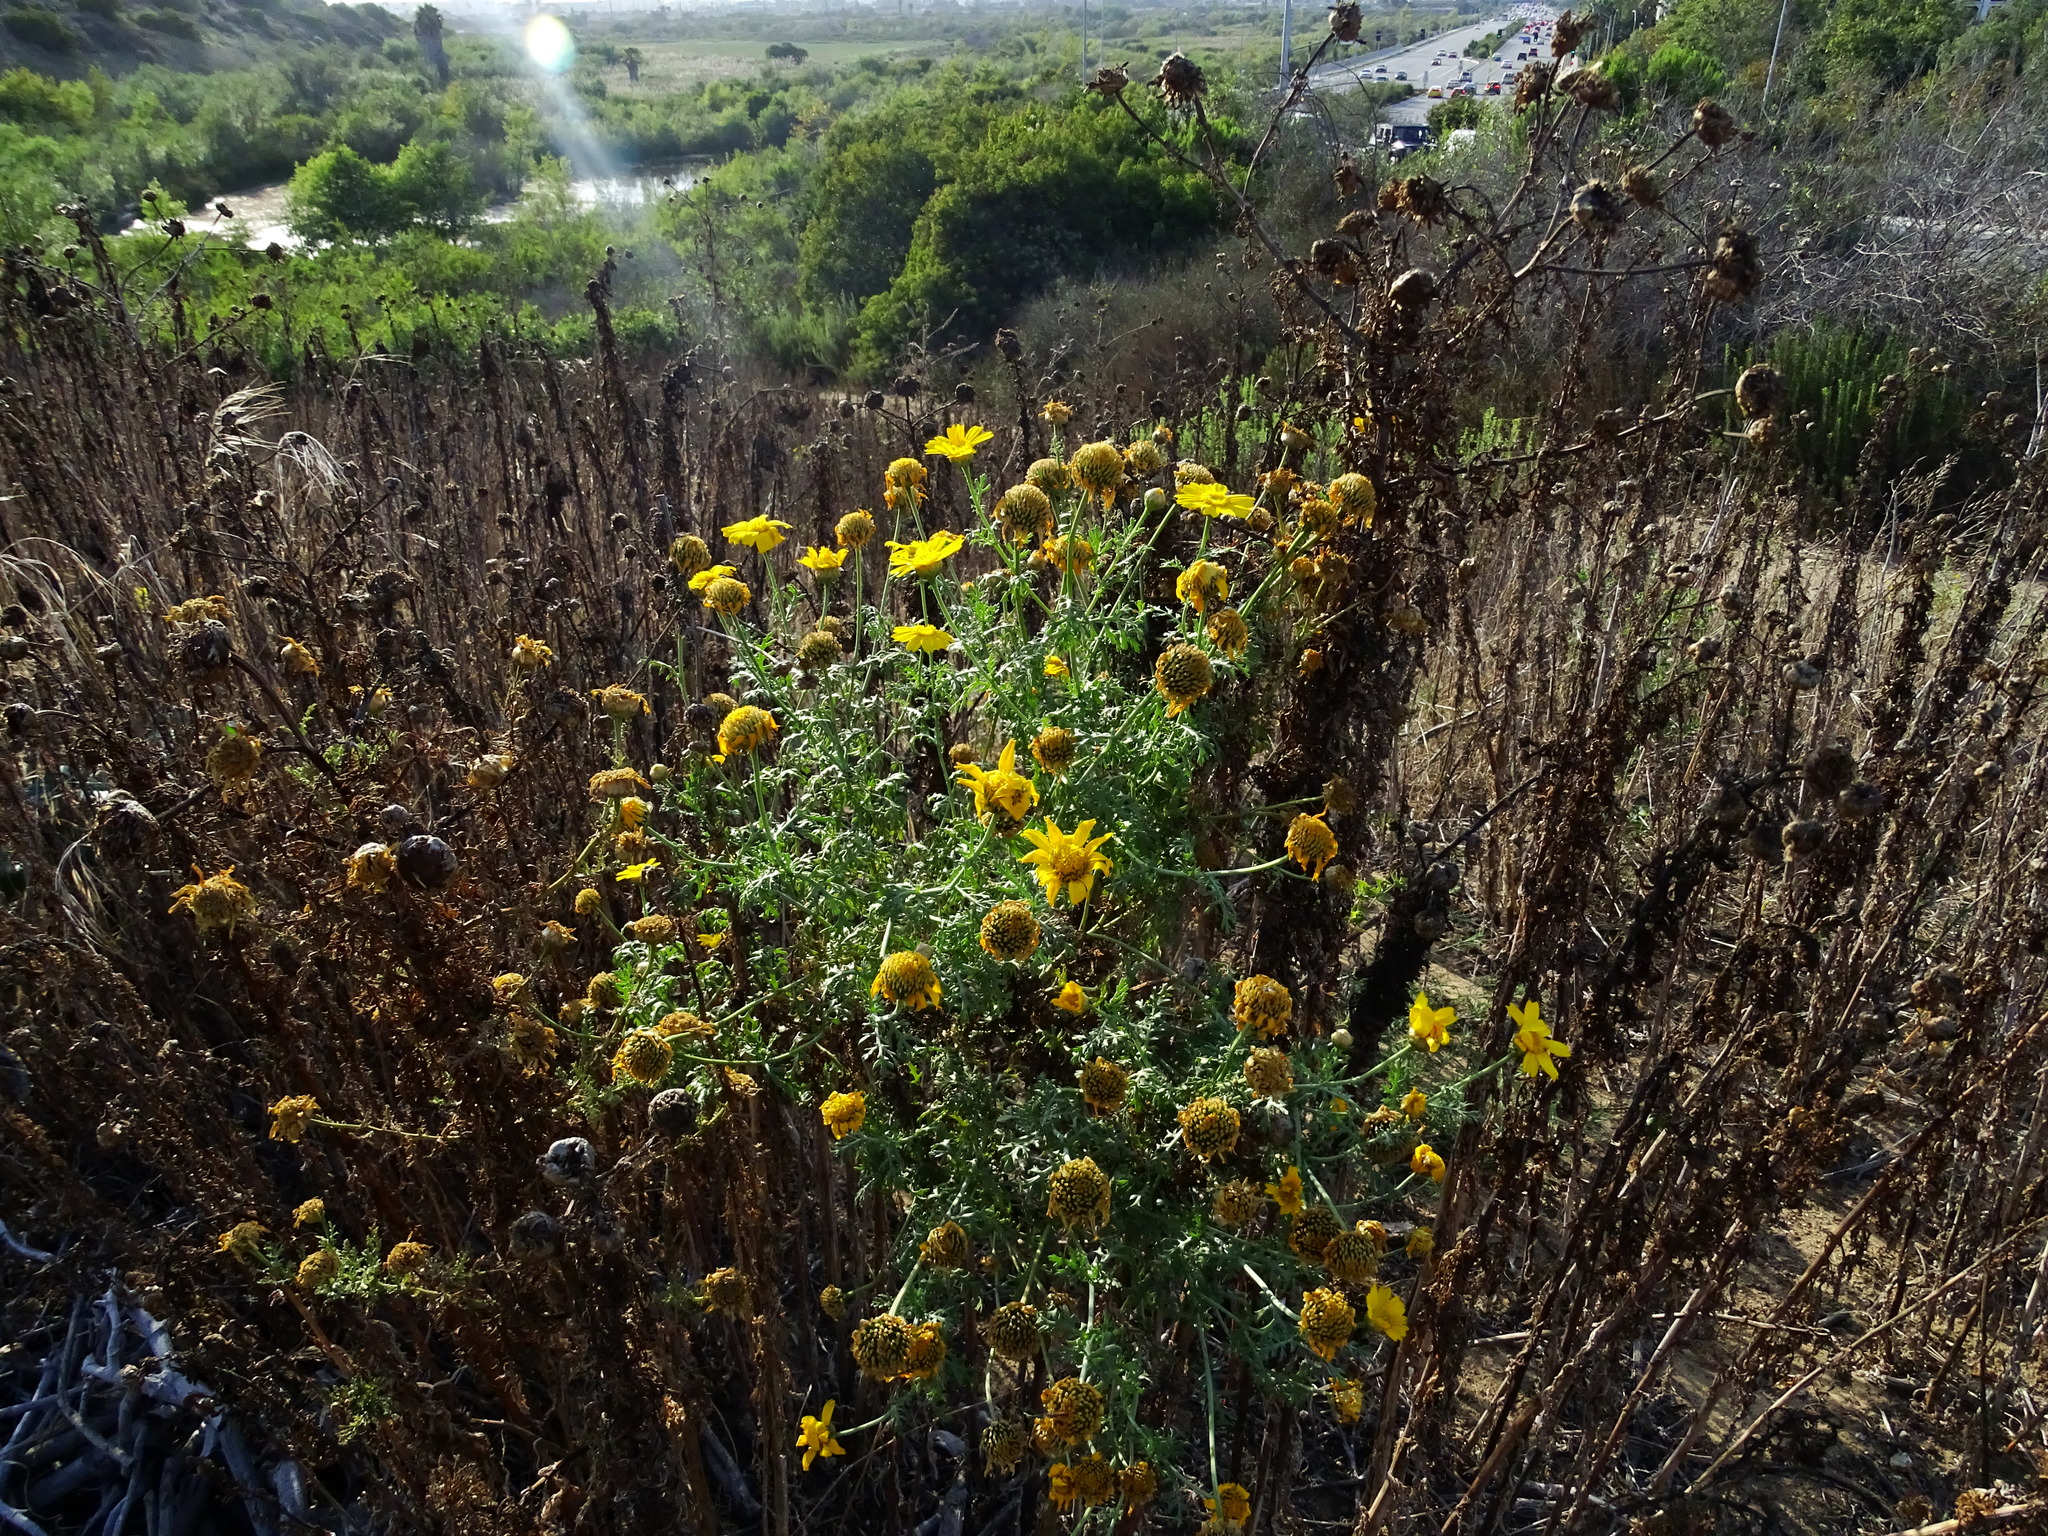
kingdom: Plantae
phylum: Tracheophyta
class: Magnoliopsida
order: Asterales
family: Asteraceae
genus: Glebionis
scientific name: Glebionis coronaria
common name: Crowndaisy
